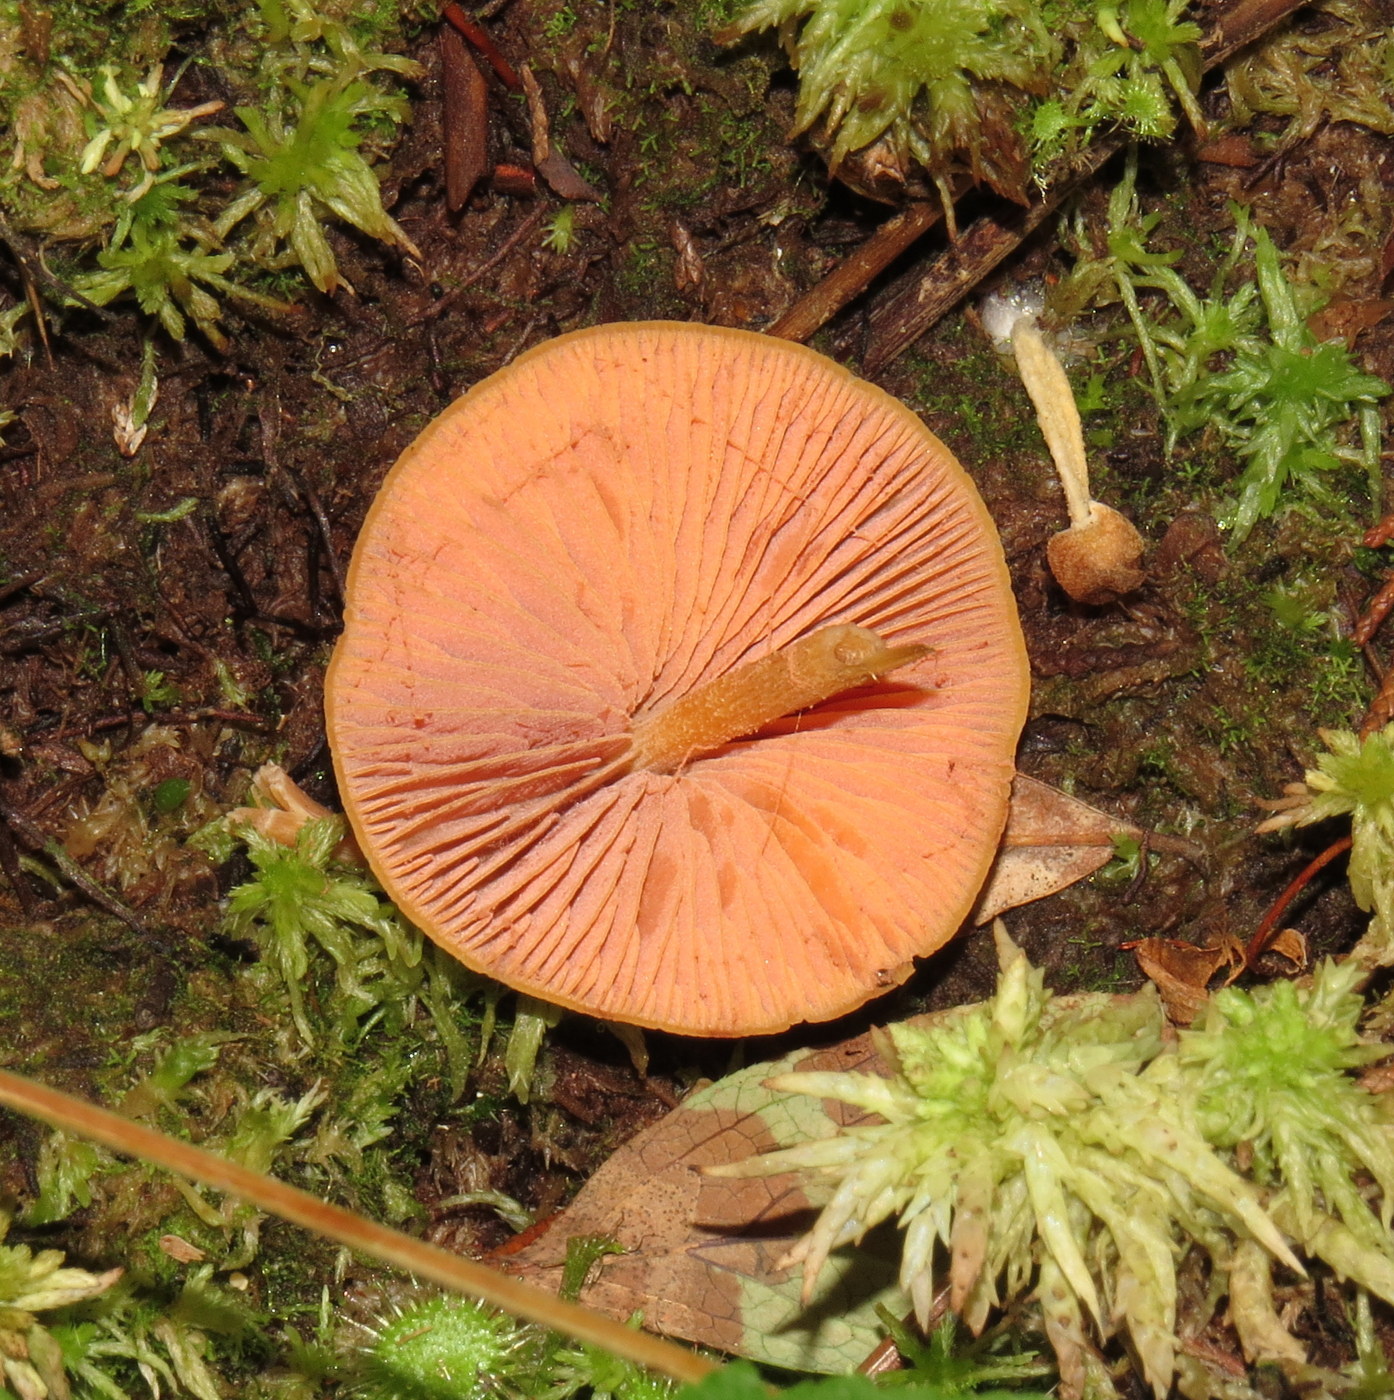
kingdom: Fungi
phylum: Basidiomycota
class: Agaricomycetes
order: Agaricales
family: Entolomataceae
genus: Entoloma
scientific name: Entoloma quadratum
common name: Salmon pinkgill
